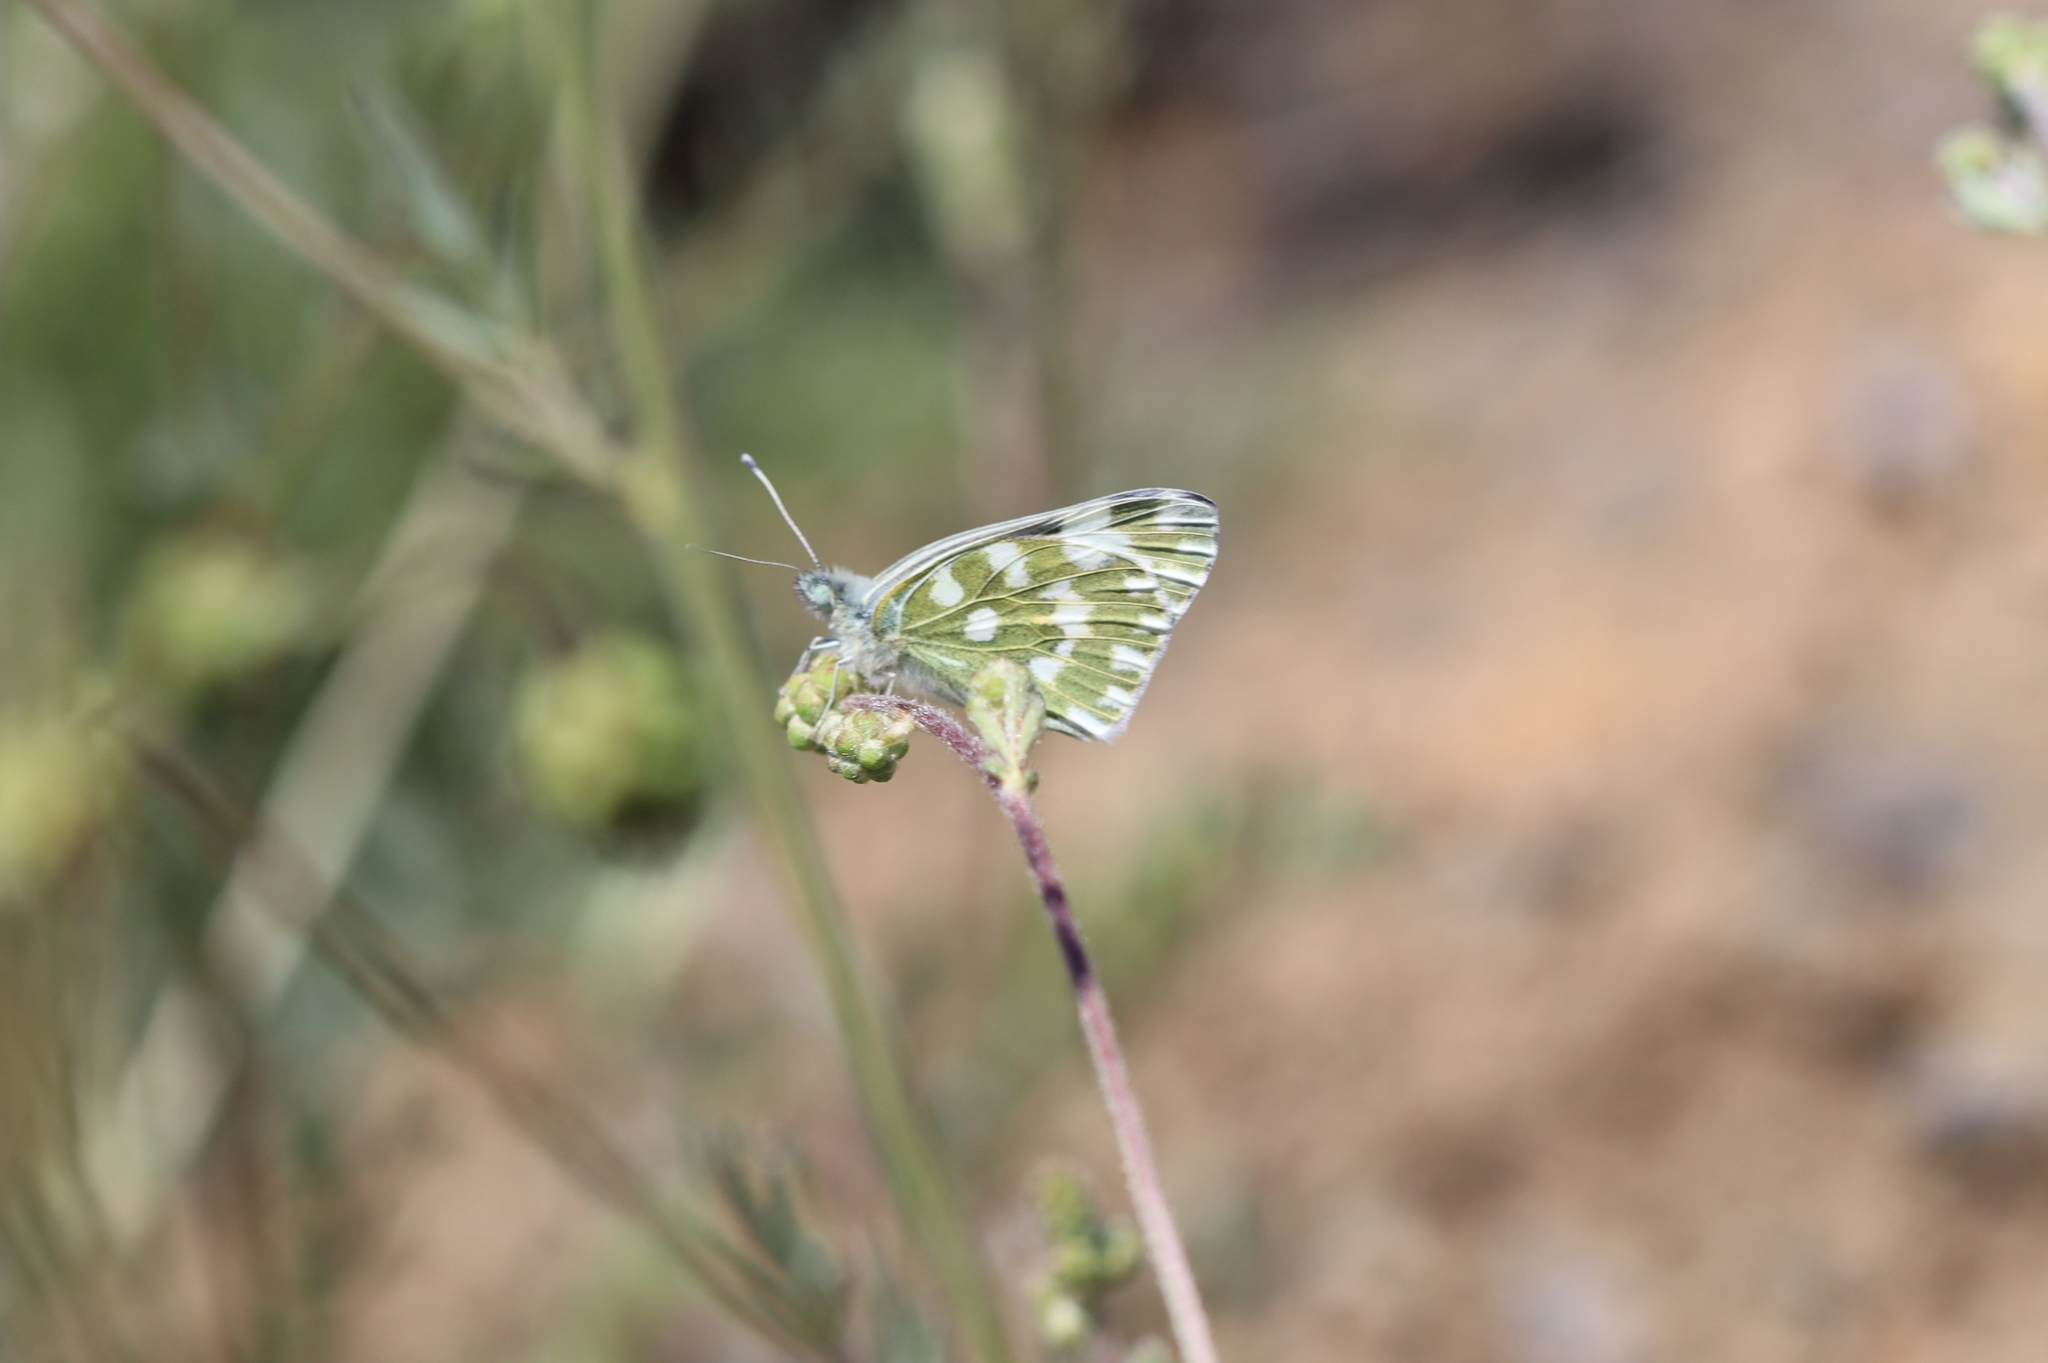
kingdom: Animalia
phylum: Arthropoda
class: Insecta
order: Lepidoptera
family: Pieridae
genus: Pontia
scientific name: Pontia edusa
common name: Eastern bath white
